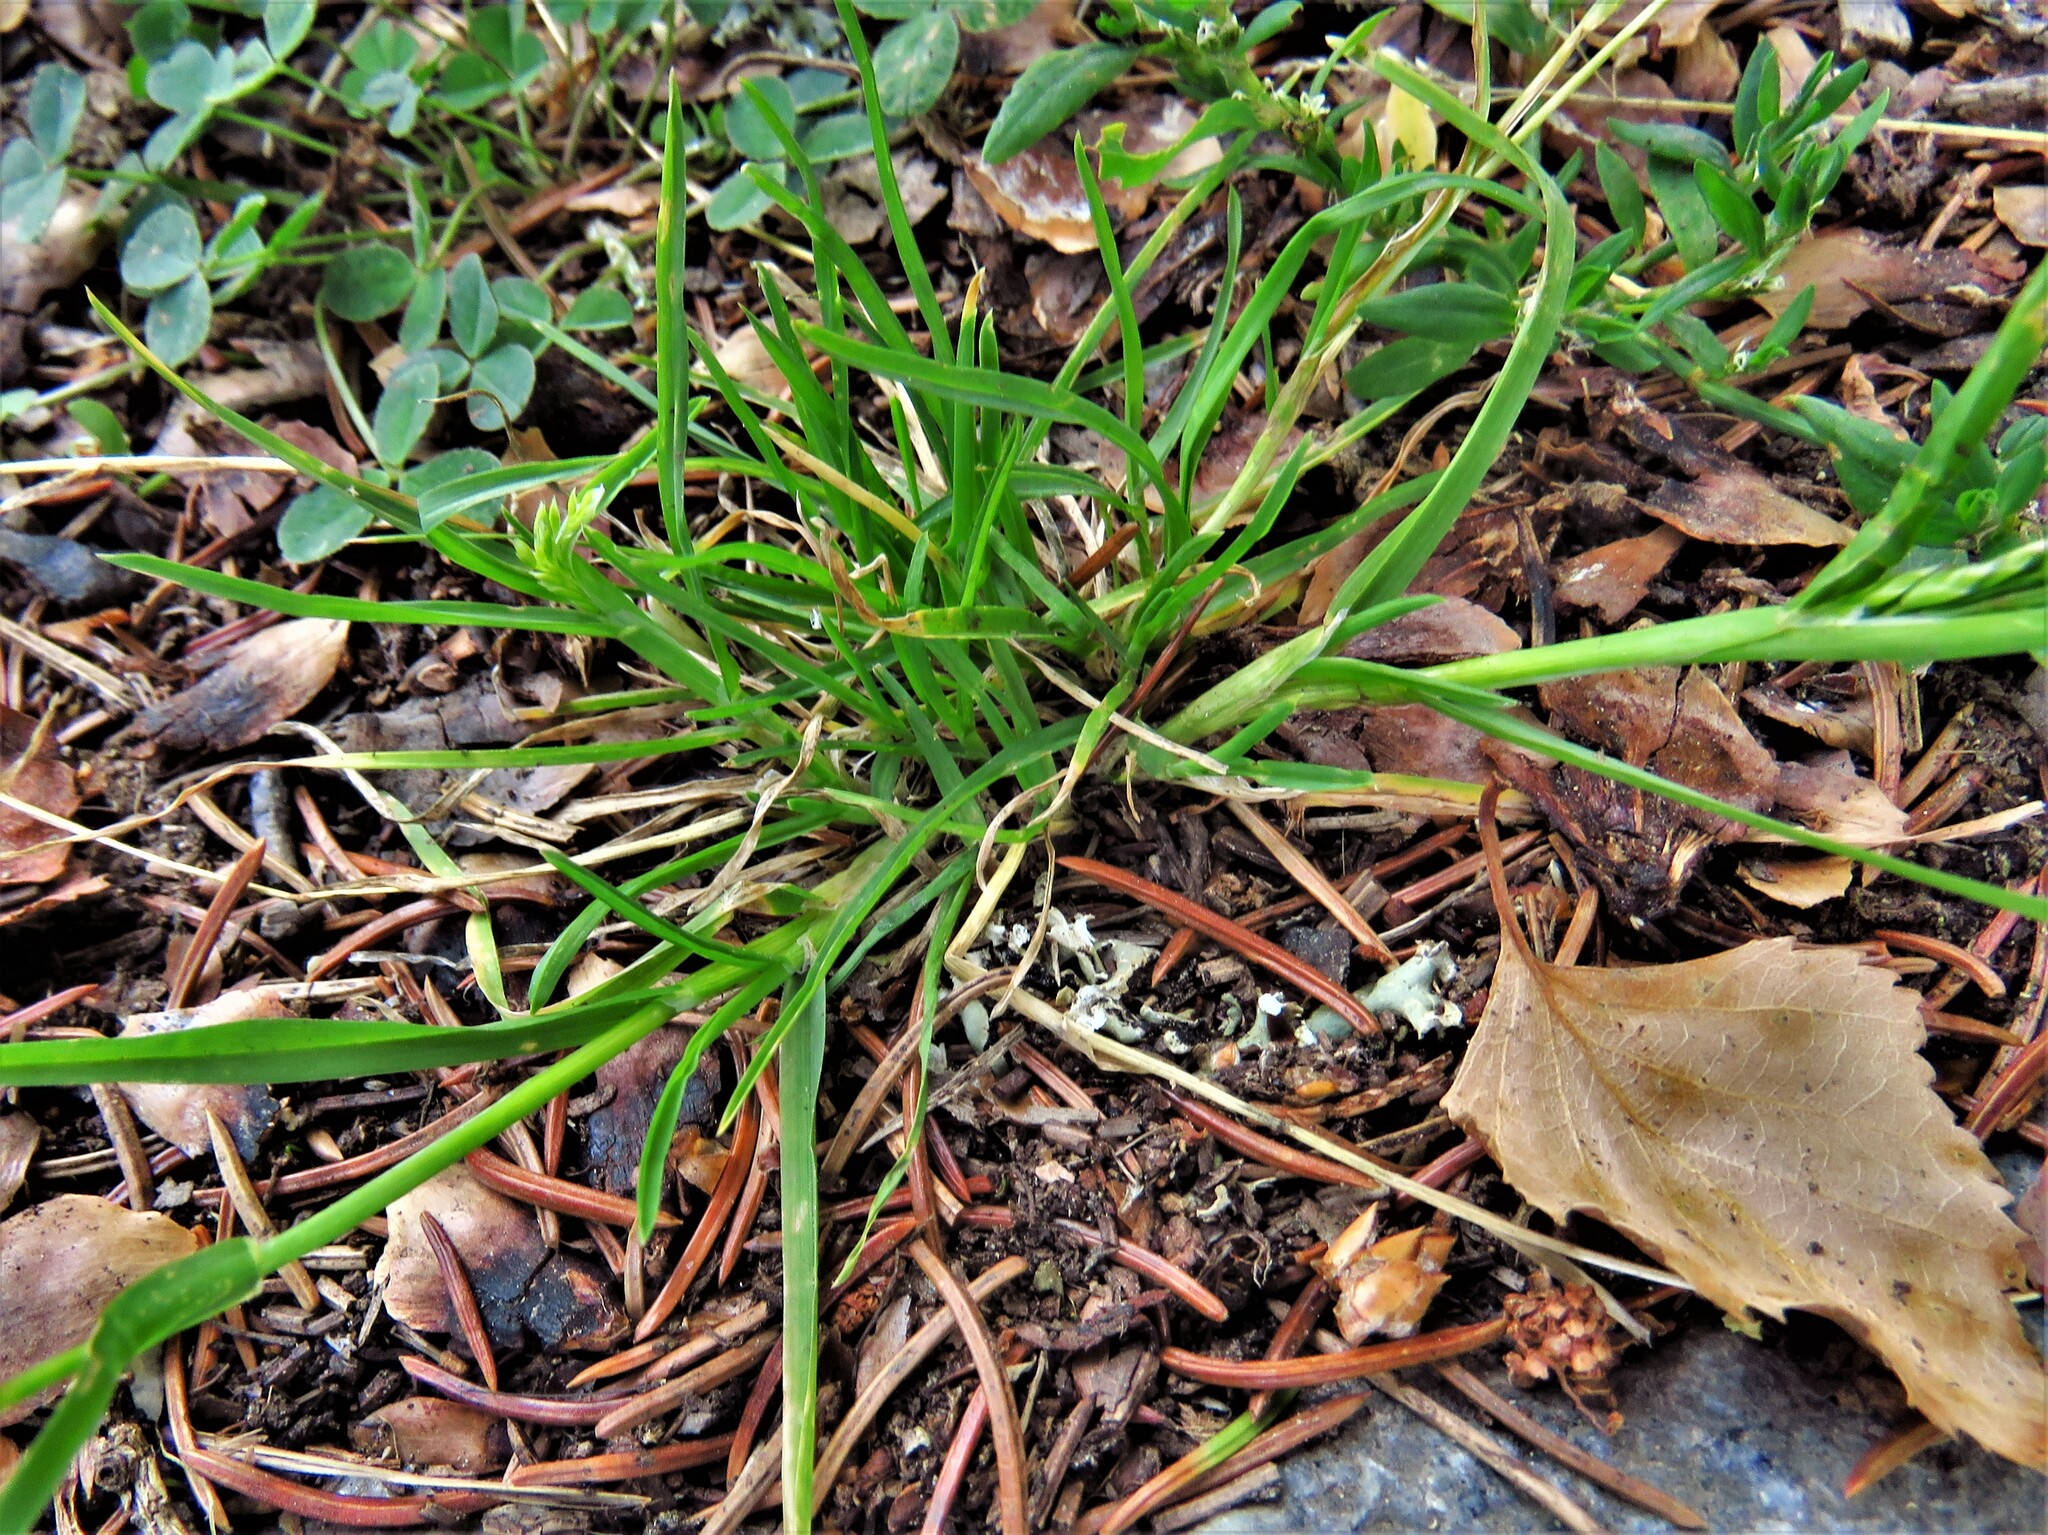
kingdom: Plantae
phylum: Tracheophyta
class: Liliopsida
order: Poales
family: Poaceae
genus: Poa
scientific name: Poa annua
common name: Annual bluegrass
